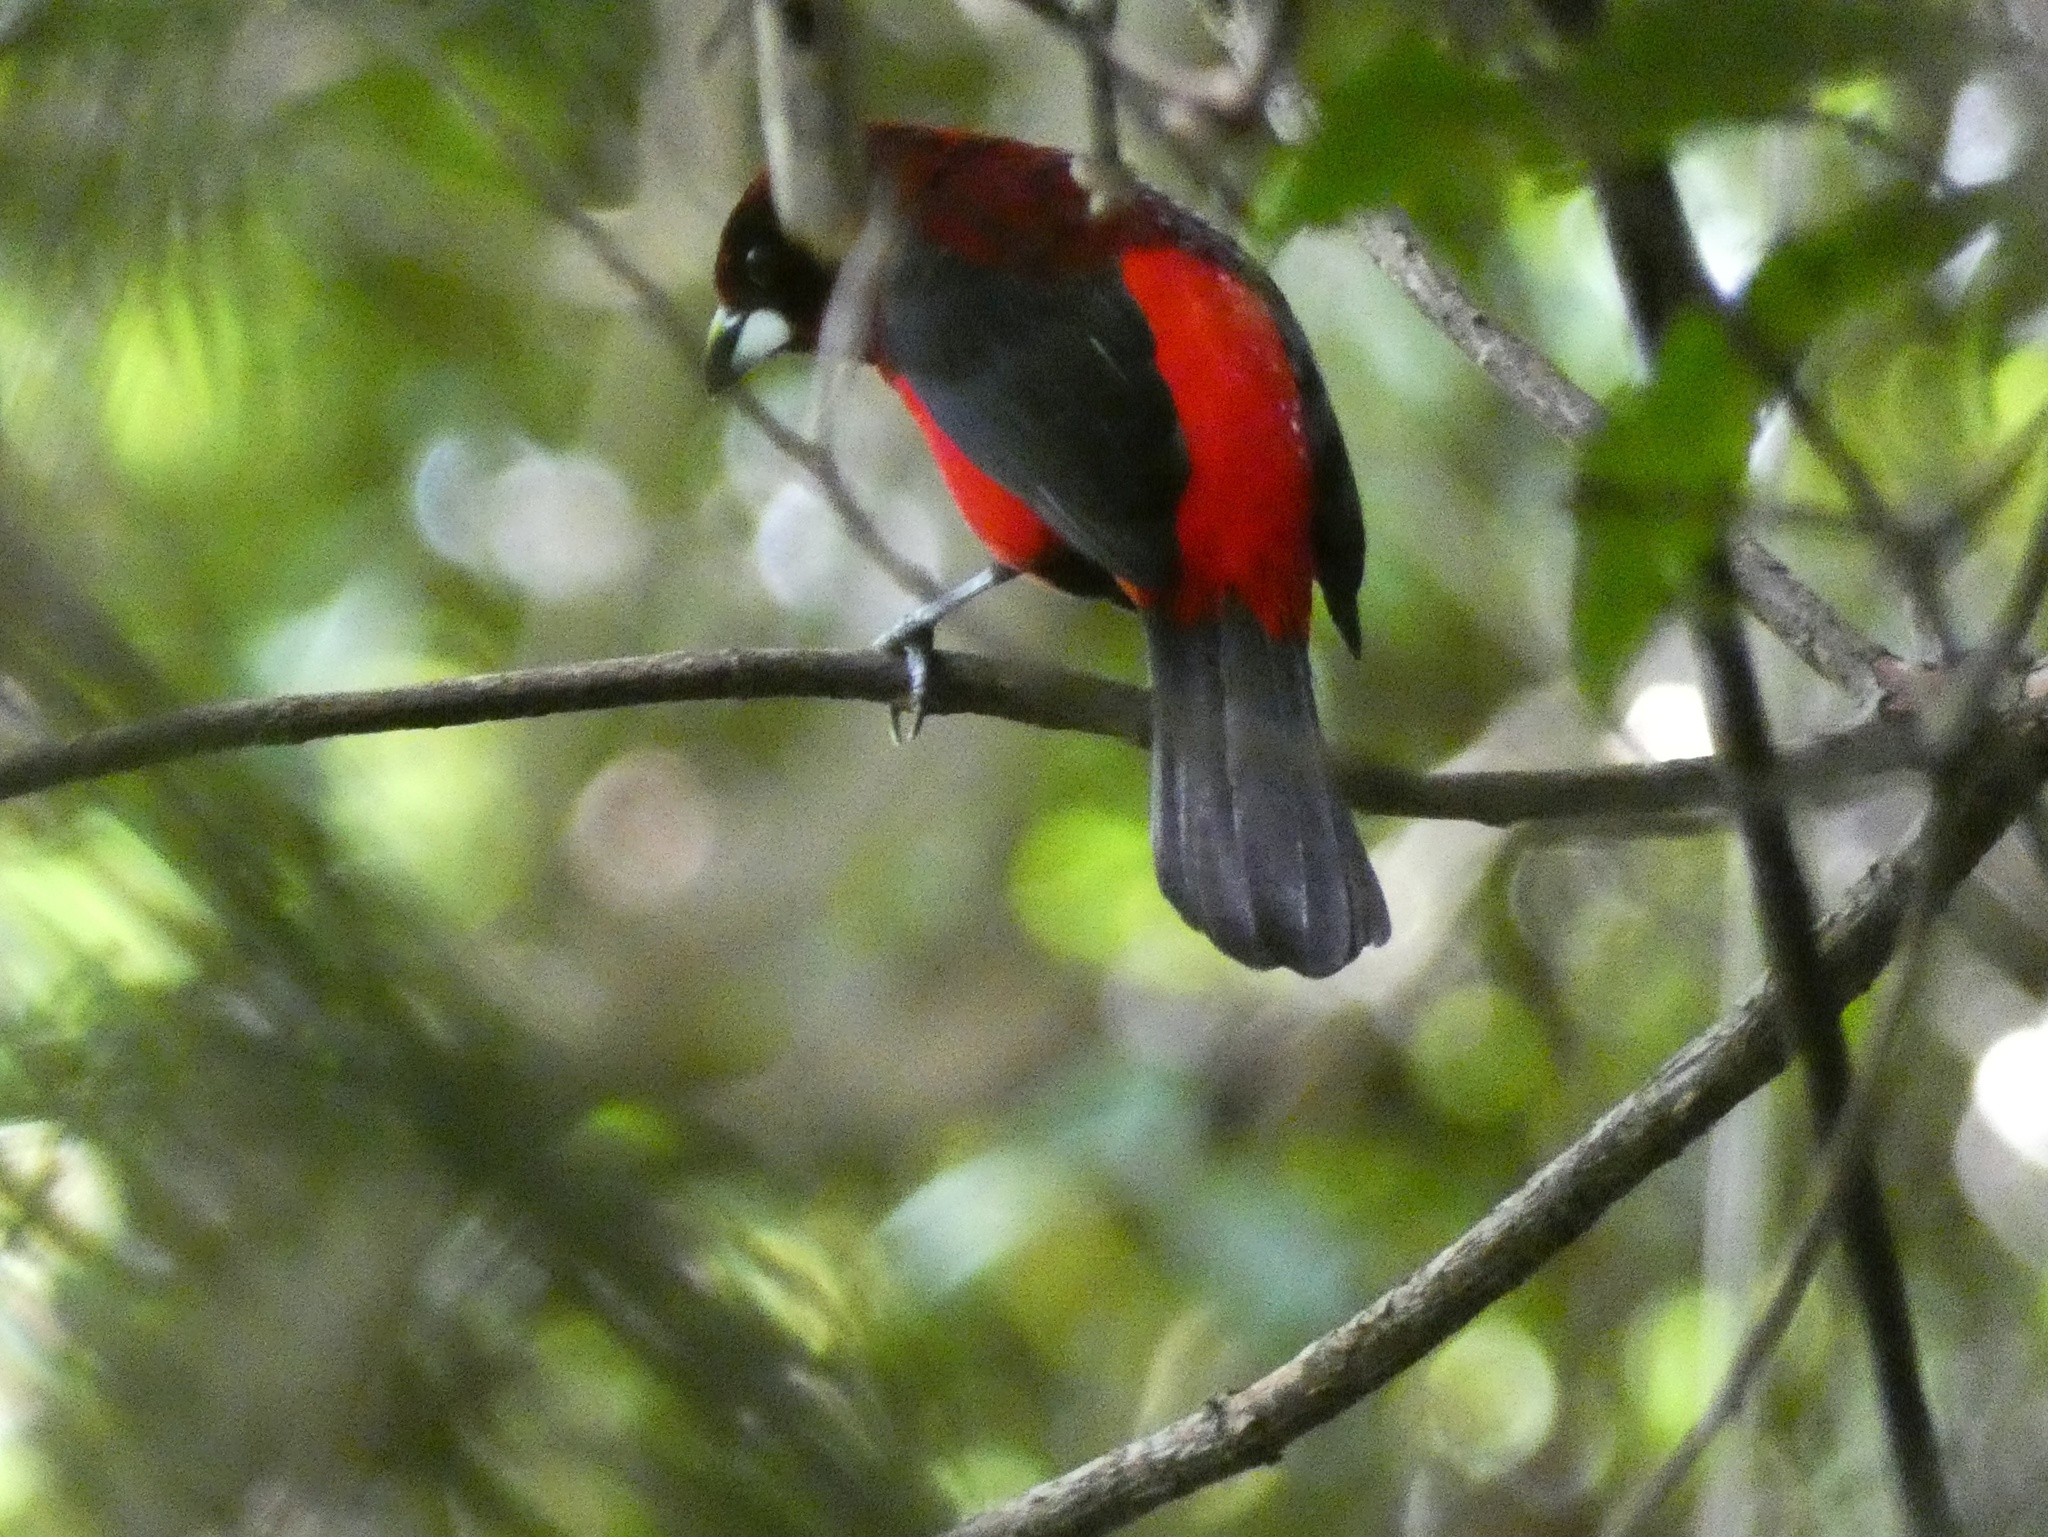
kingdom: Animalia
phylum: Chordata
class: Aves
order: Passeriformes
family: Thraupidae
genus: Ramphocelus
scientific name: Ramphocelus dimidiatus
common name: Crimson-backed tanager
